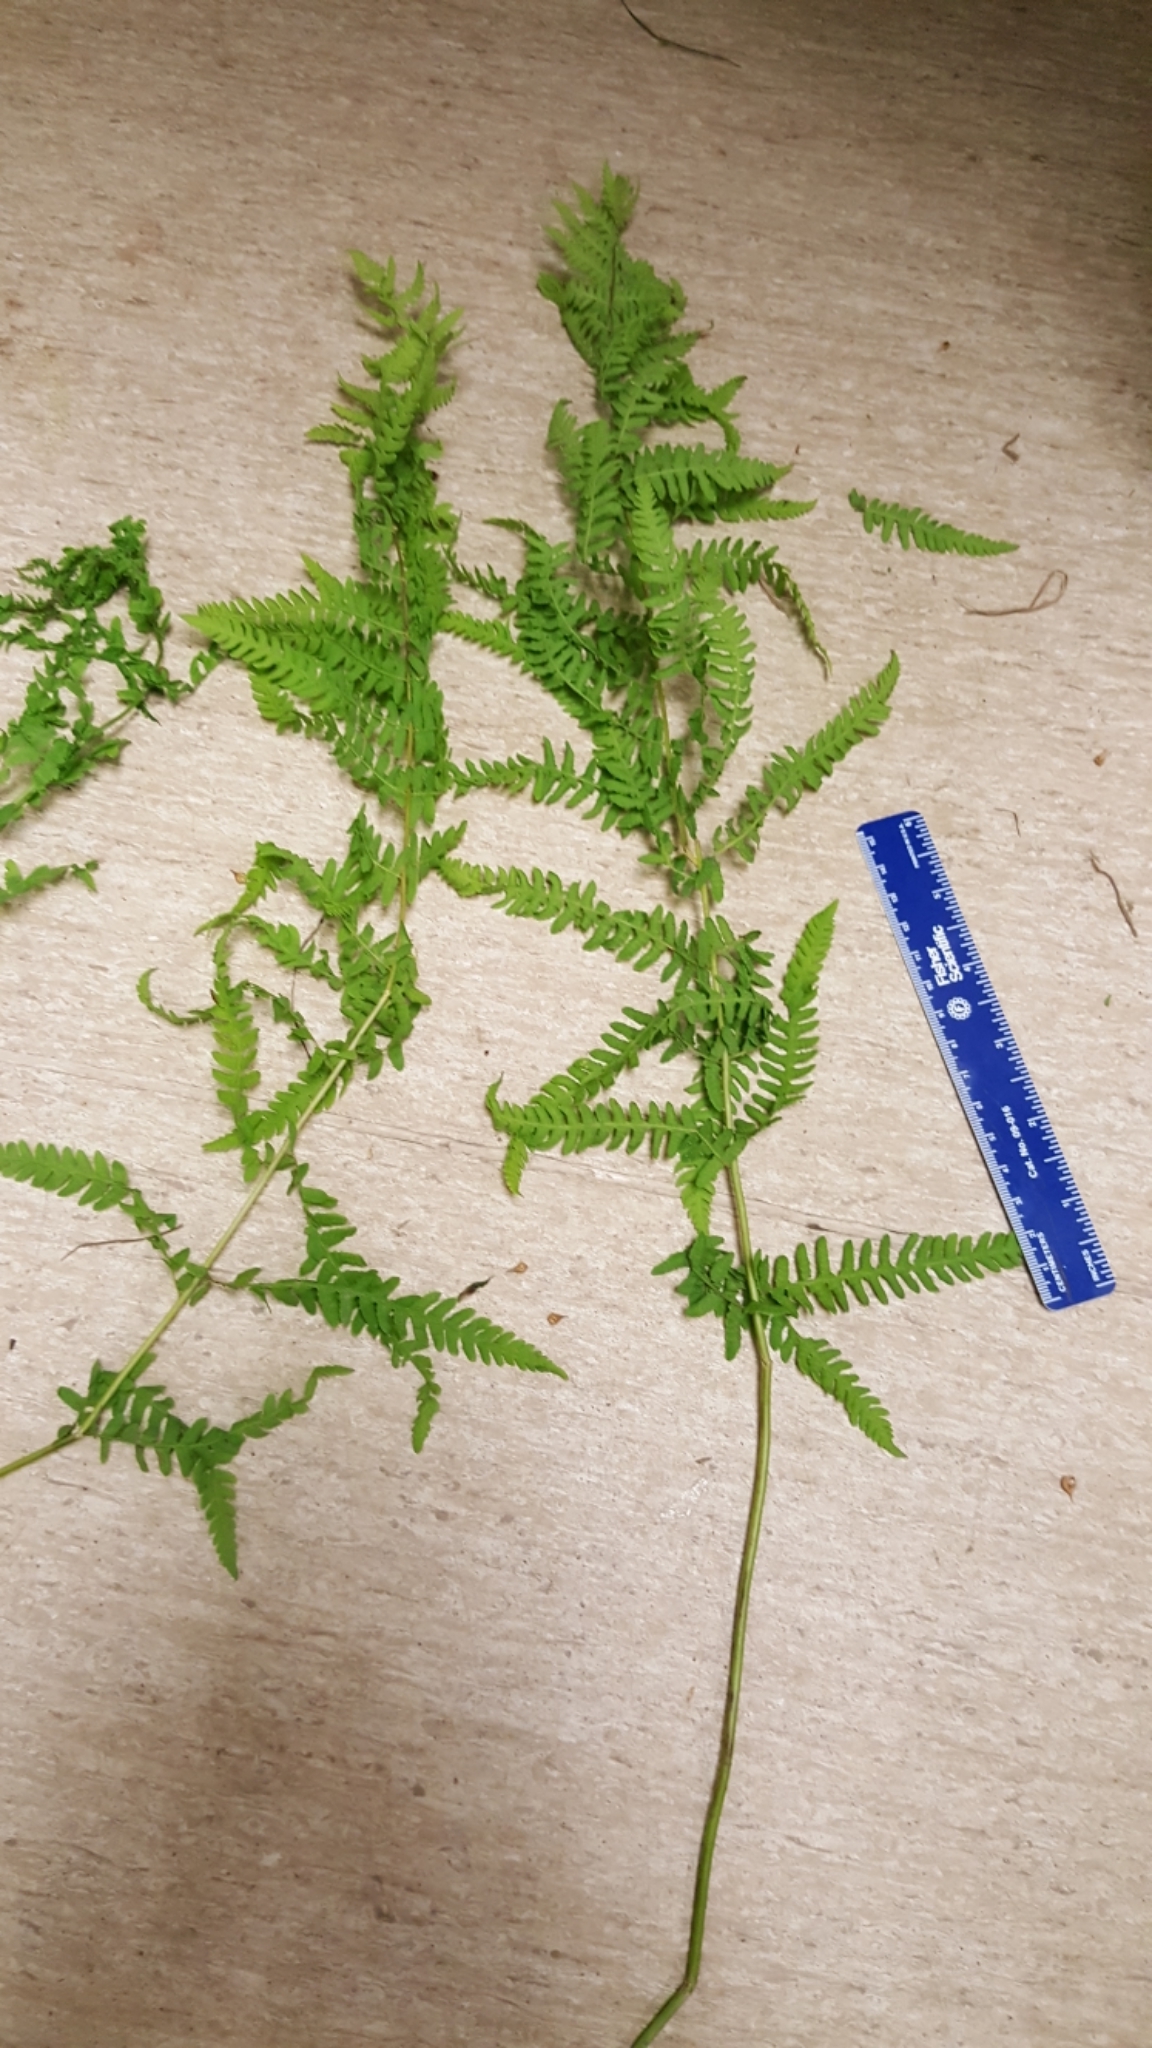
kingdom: Plantae
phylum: Tracheophyta
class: Polypodiopsida
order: Polypodiales
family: Thelypteridaceae
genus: Thelypteris
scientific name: Thelypteris palustris
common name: Marsh fern
